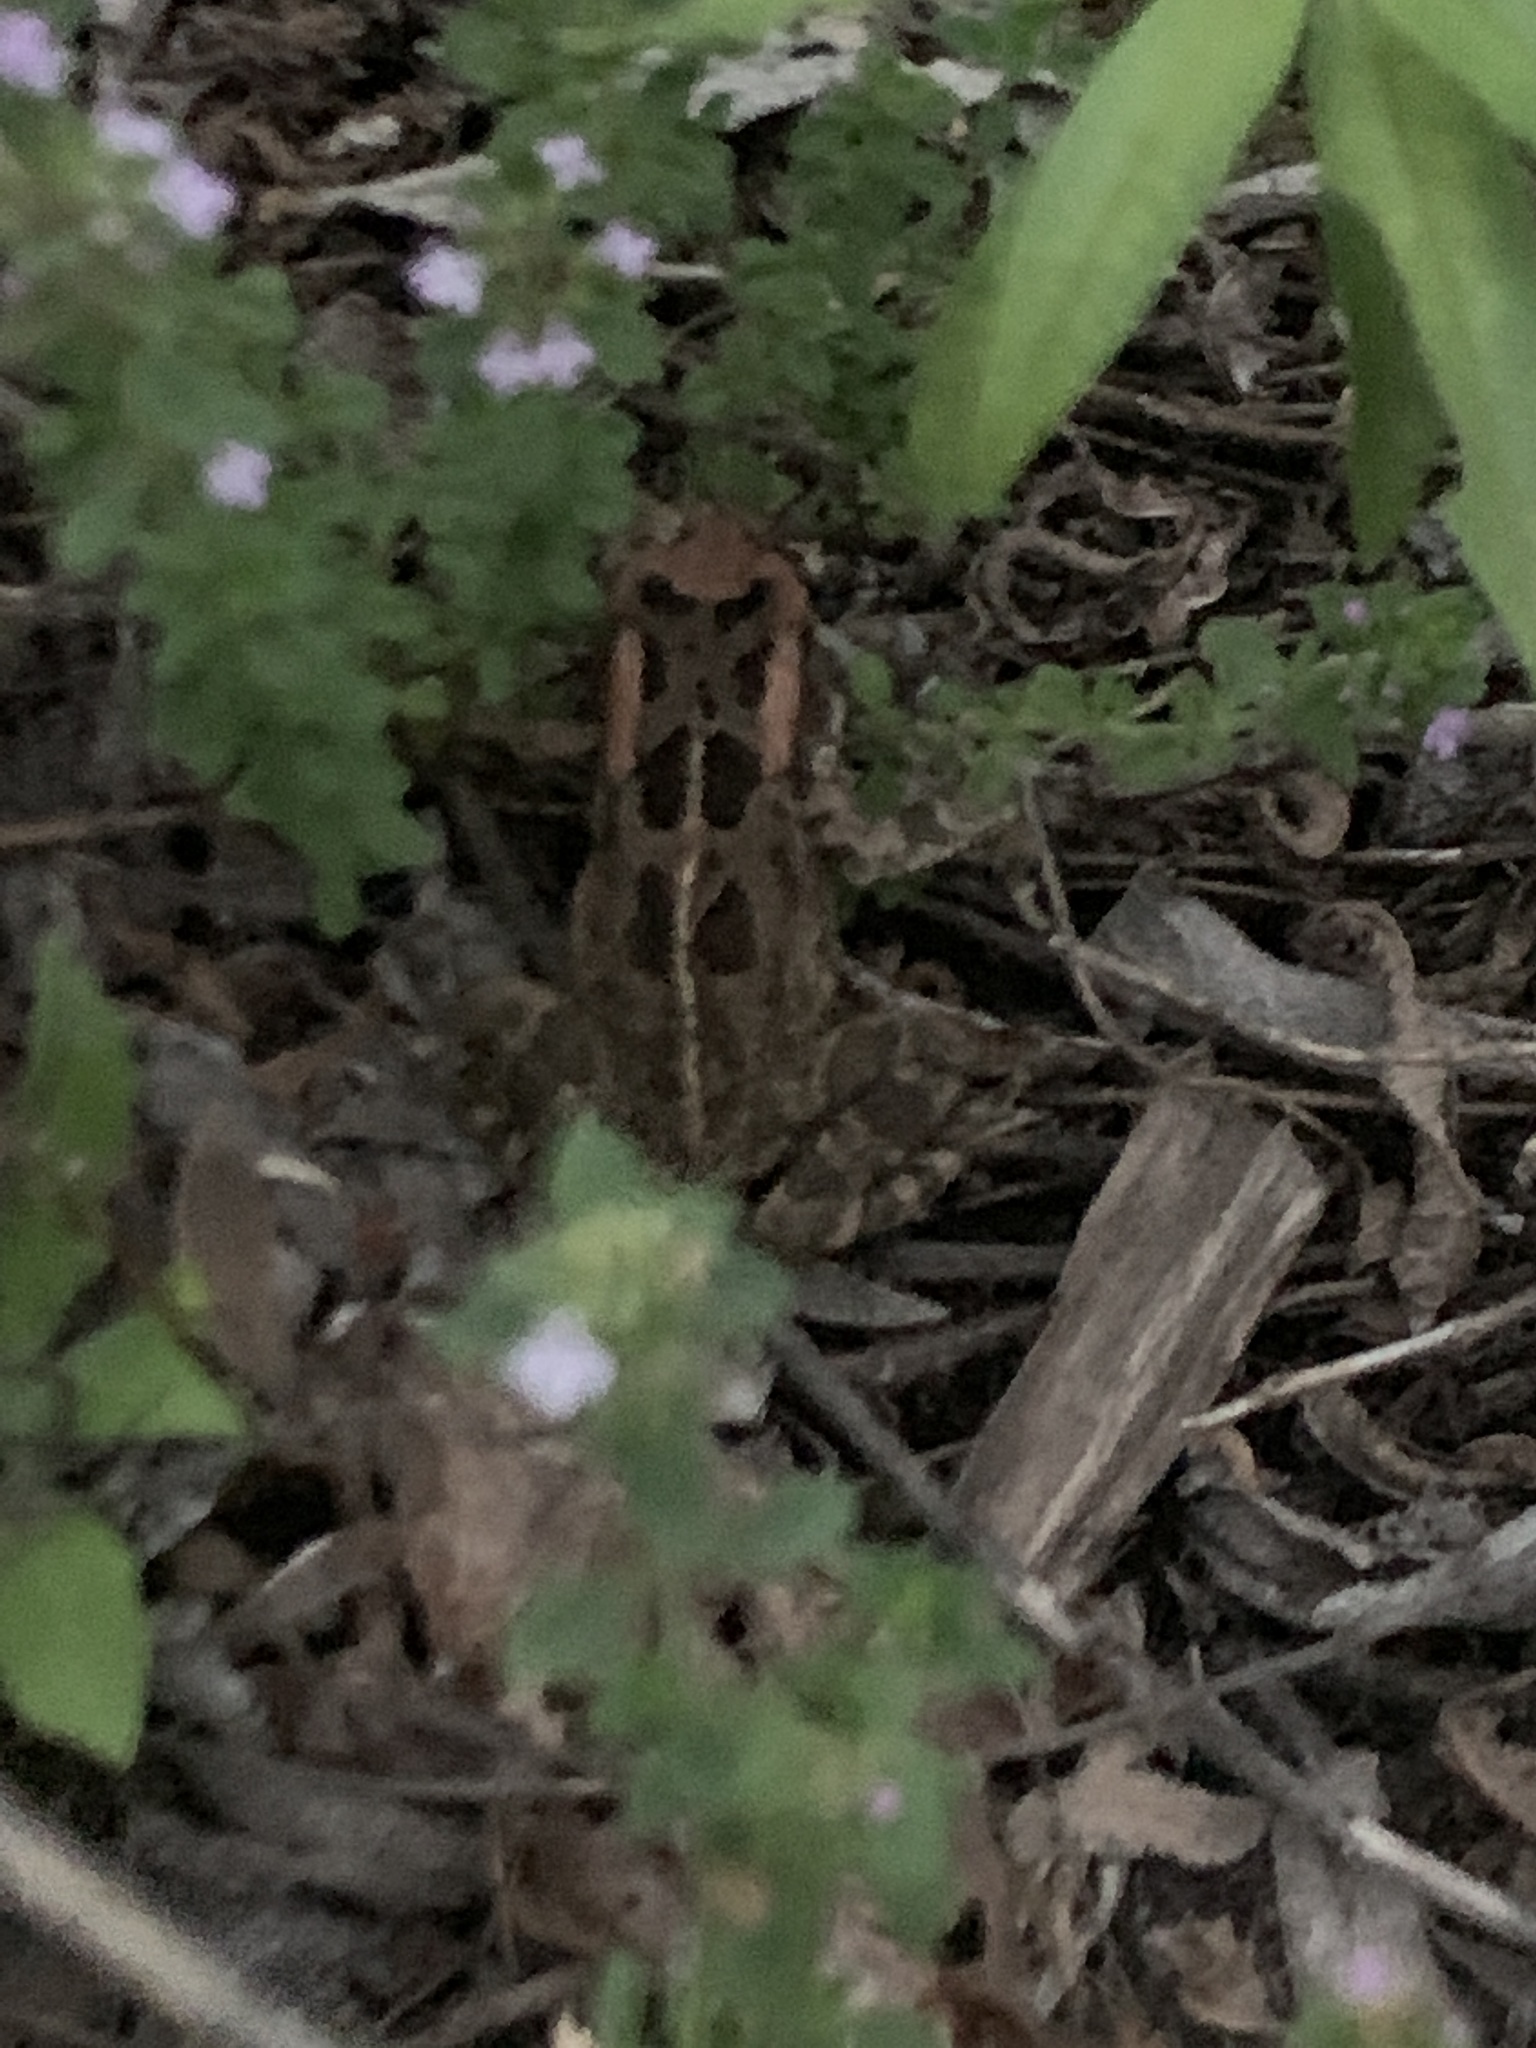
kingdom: Animalia
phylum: Chordata
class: Amphibia
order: Anura
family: Bufonidae
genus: Sclerophrys
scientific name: Sclerophrys capensis
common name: Ranger’s toad
